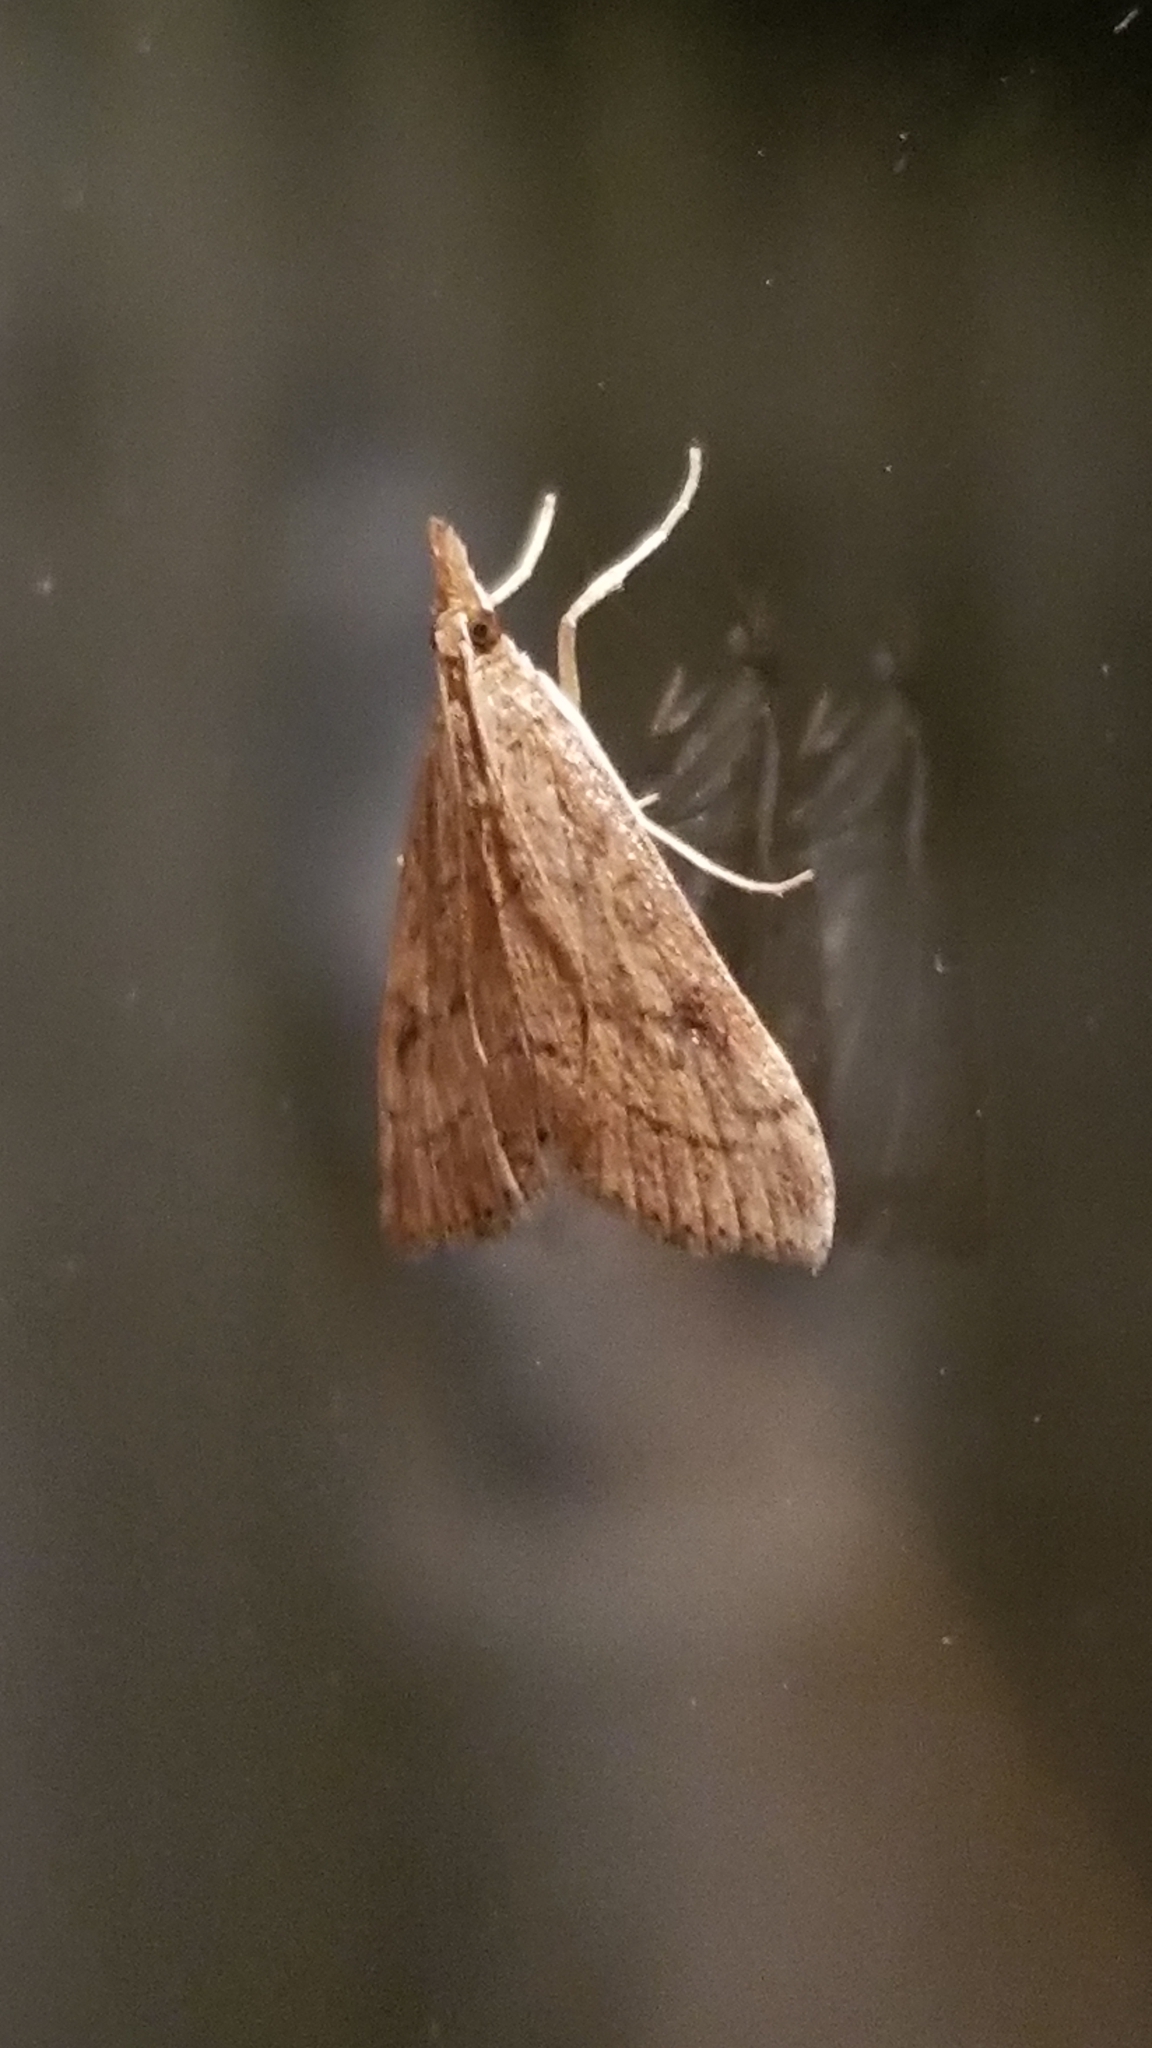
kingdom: Animalia
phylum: Arthropoda
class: Insecta
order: Lepidoptera
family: Crambidae
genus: Udea
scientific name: Udea rubigalis
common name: Celery leaftier moth
